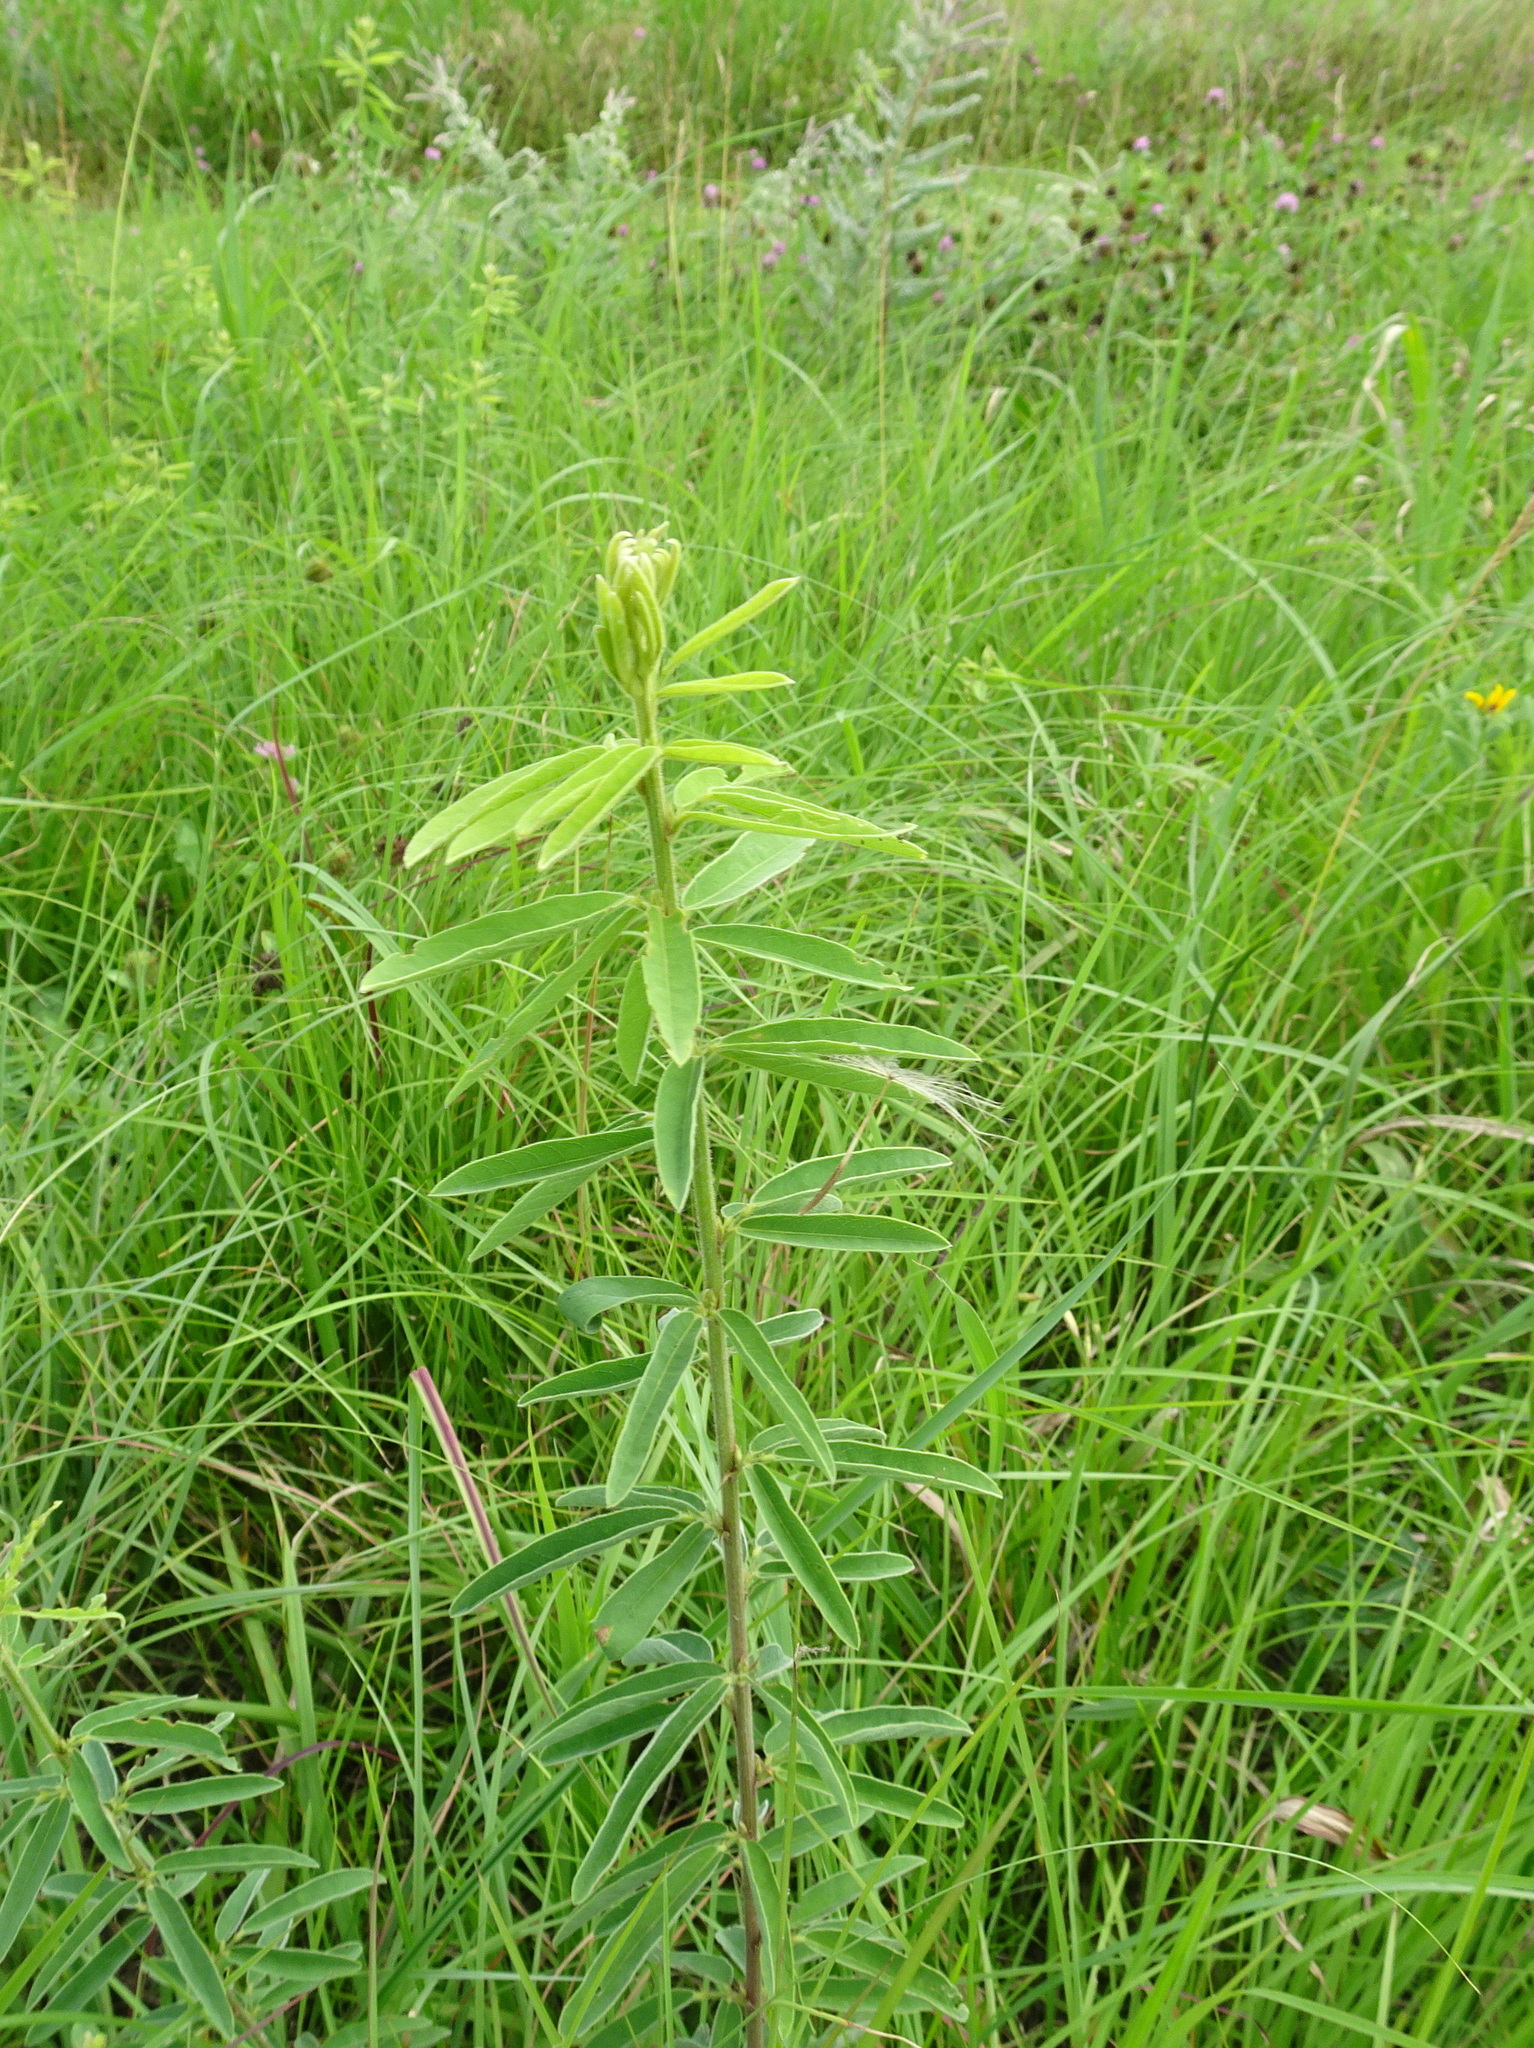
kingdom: Plantae
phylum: Tracheophyta
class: Magnoliopsida
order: Fabales
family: Fabaceae
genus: Desmodium
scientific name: Desmodium sessilifolium
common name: Sessile tick-clover
